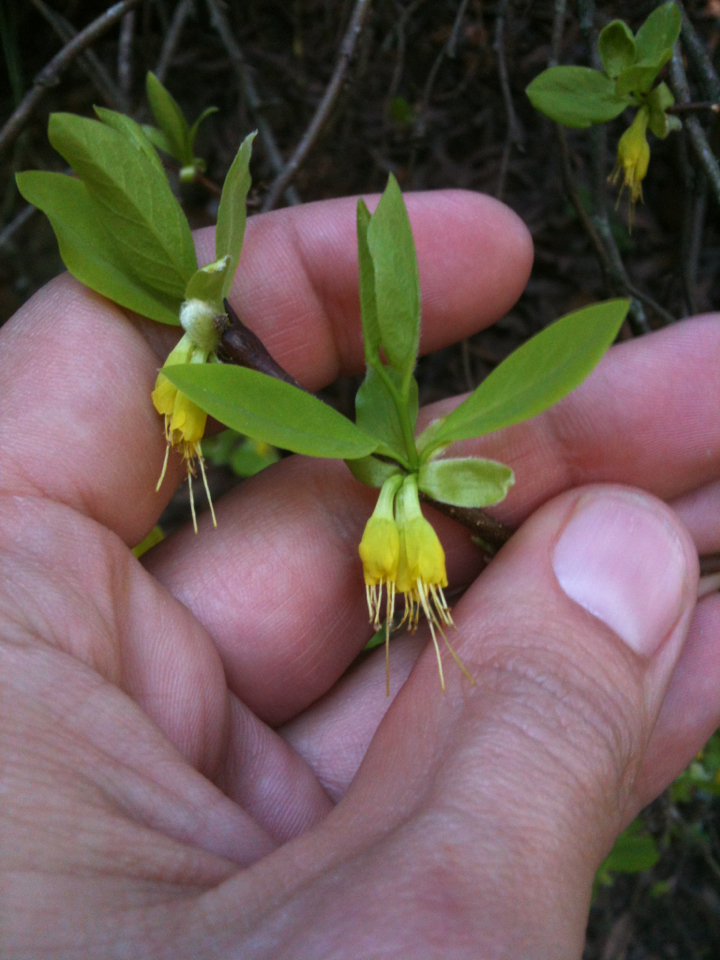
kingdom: Plantae
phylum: Tracheophyta
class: Magnoliopsida
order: Malvales
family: Thymelaeaceae
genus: Dirca
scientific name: Dirca occidentalis
